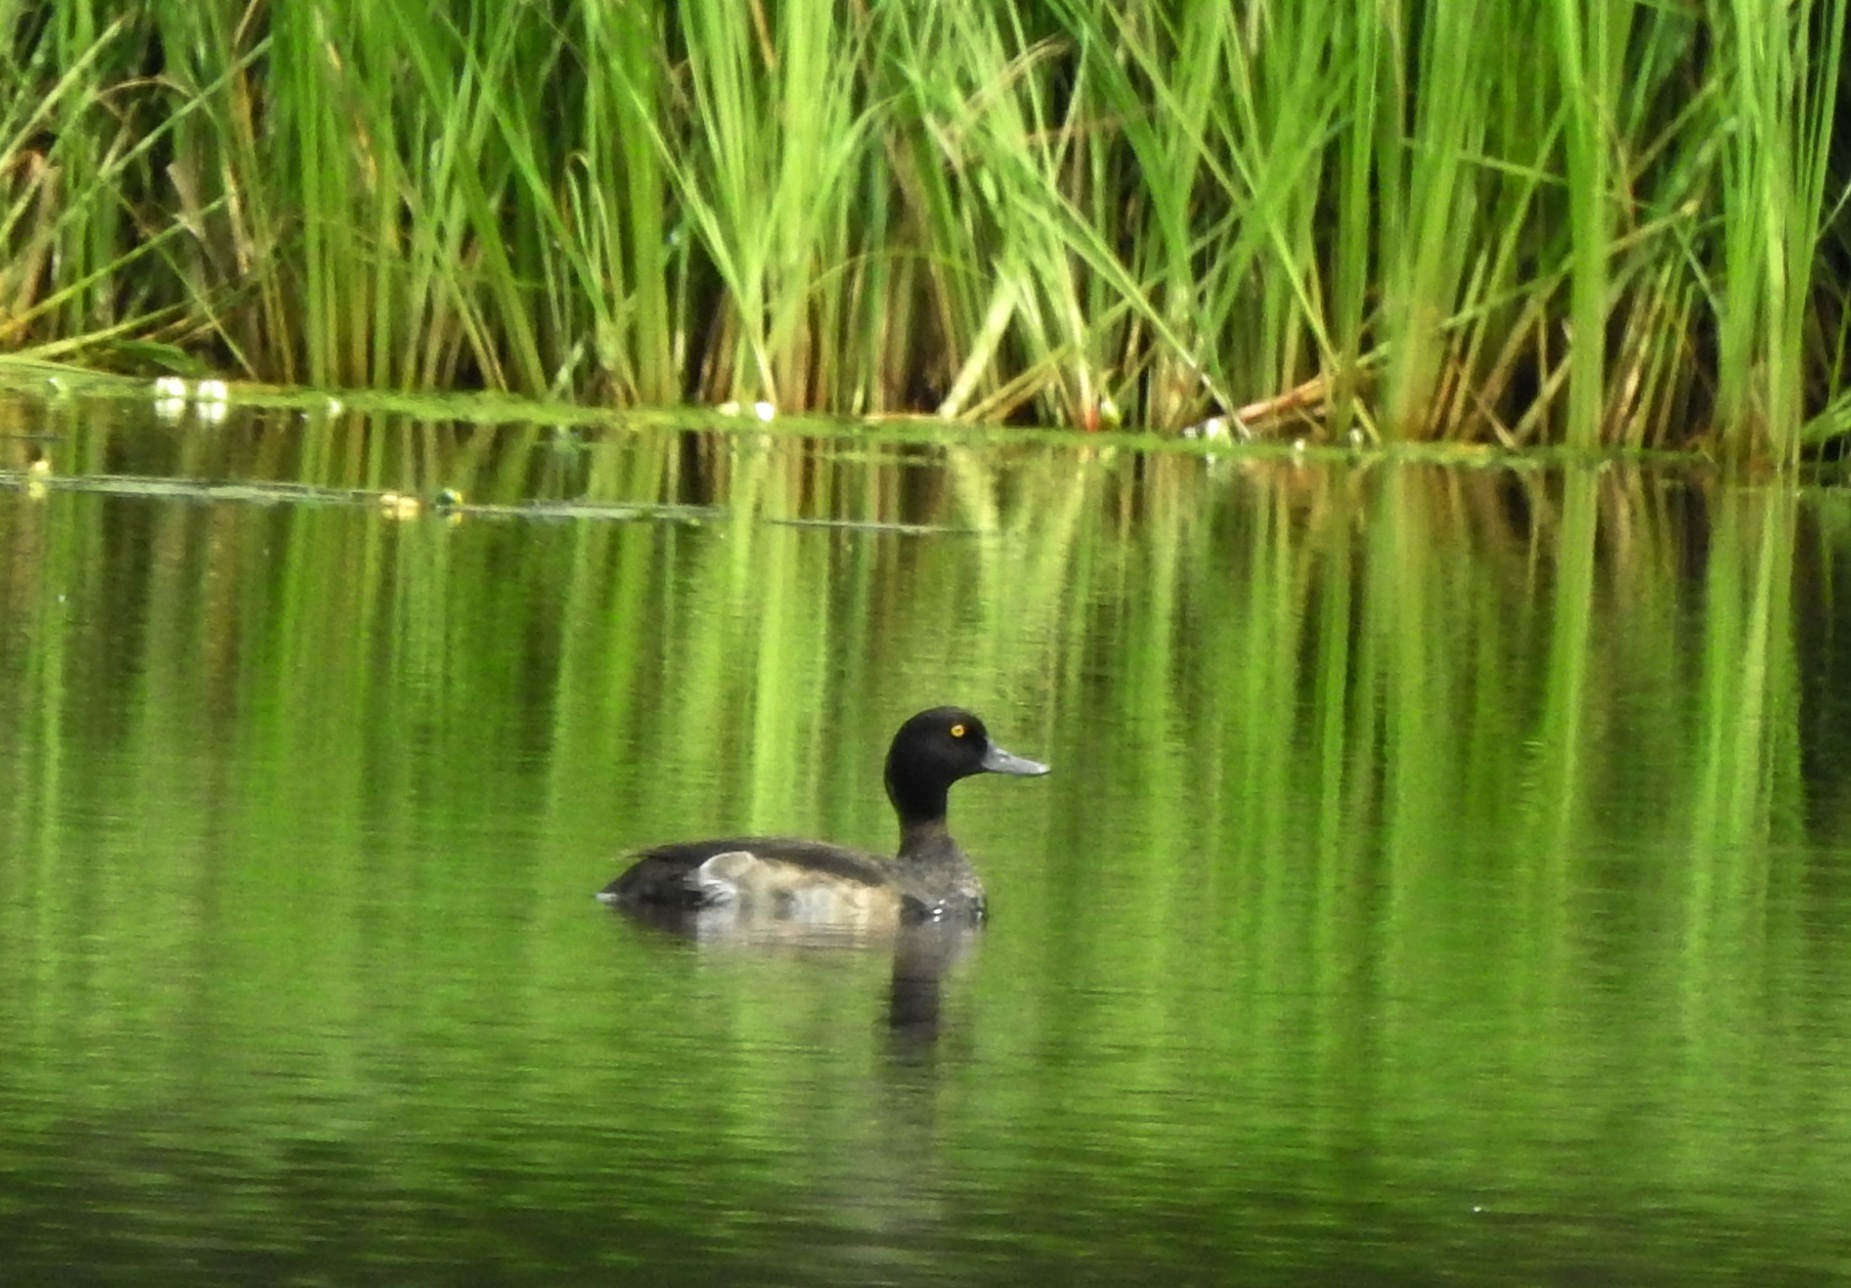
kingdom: Animalia
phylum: Chordata
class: Aves
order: Anseriformes
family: Anatidae
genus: Aythya
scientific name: Aythya fuligula
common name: Tufted duck
